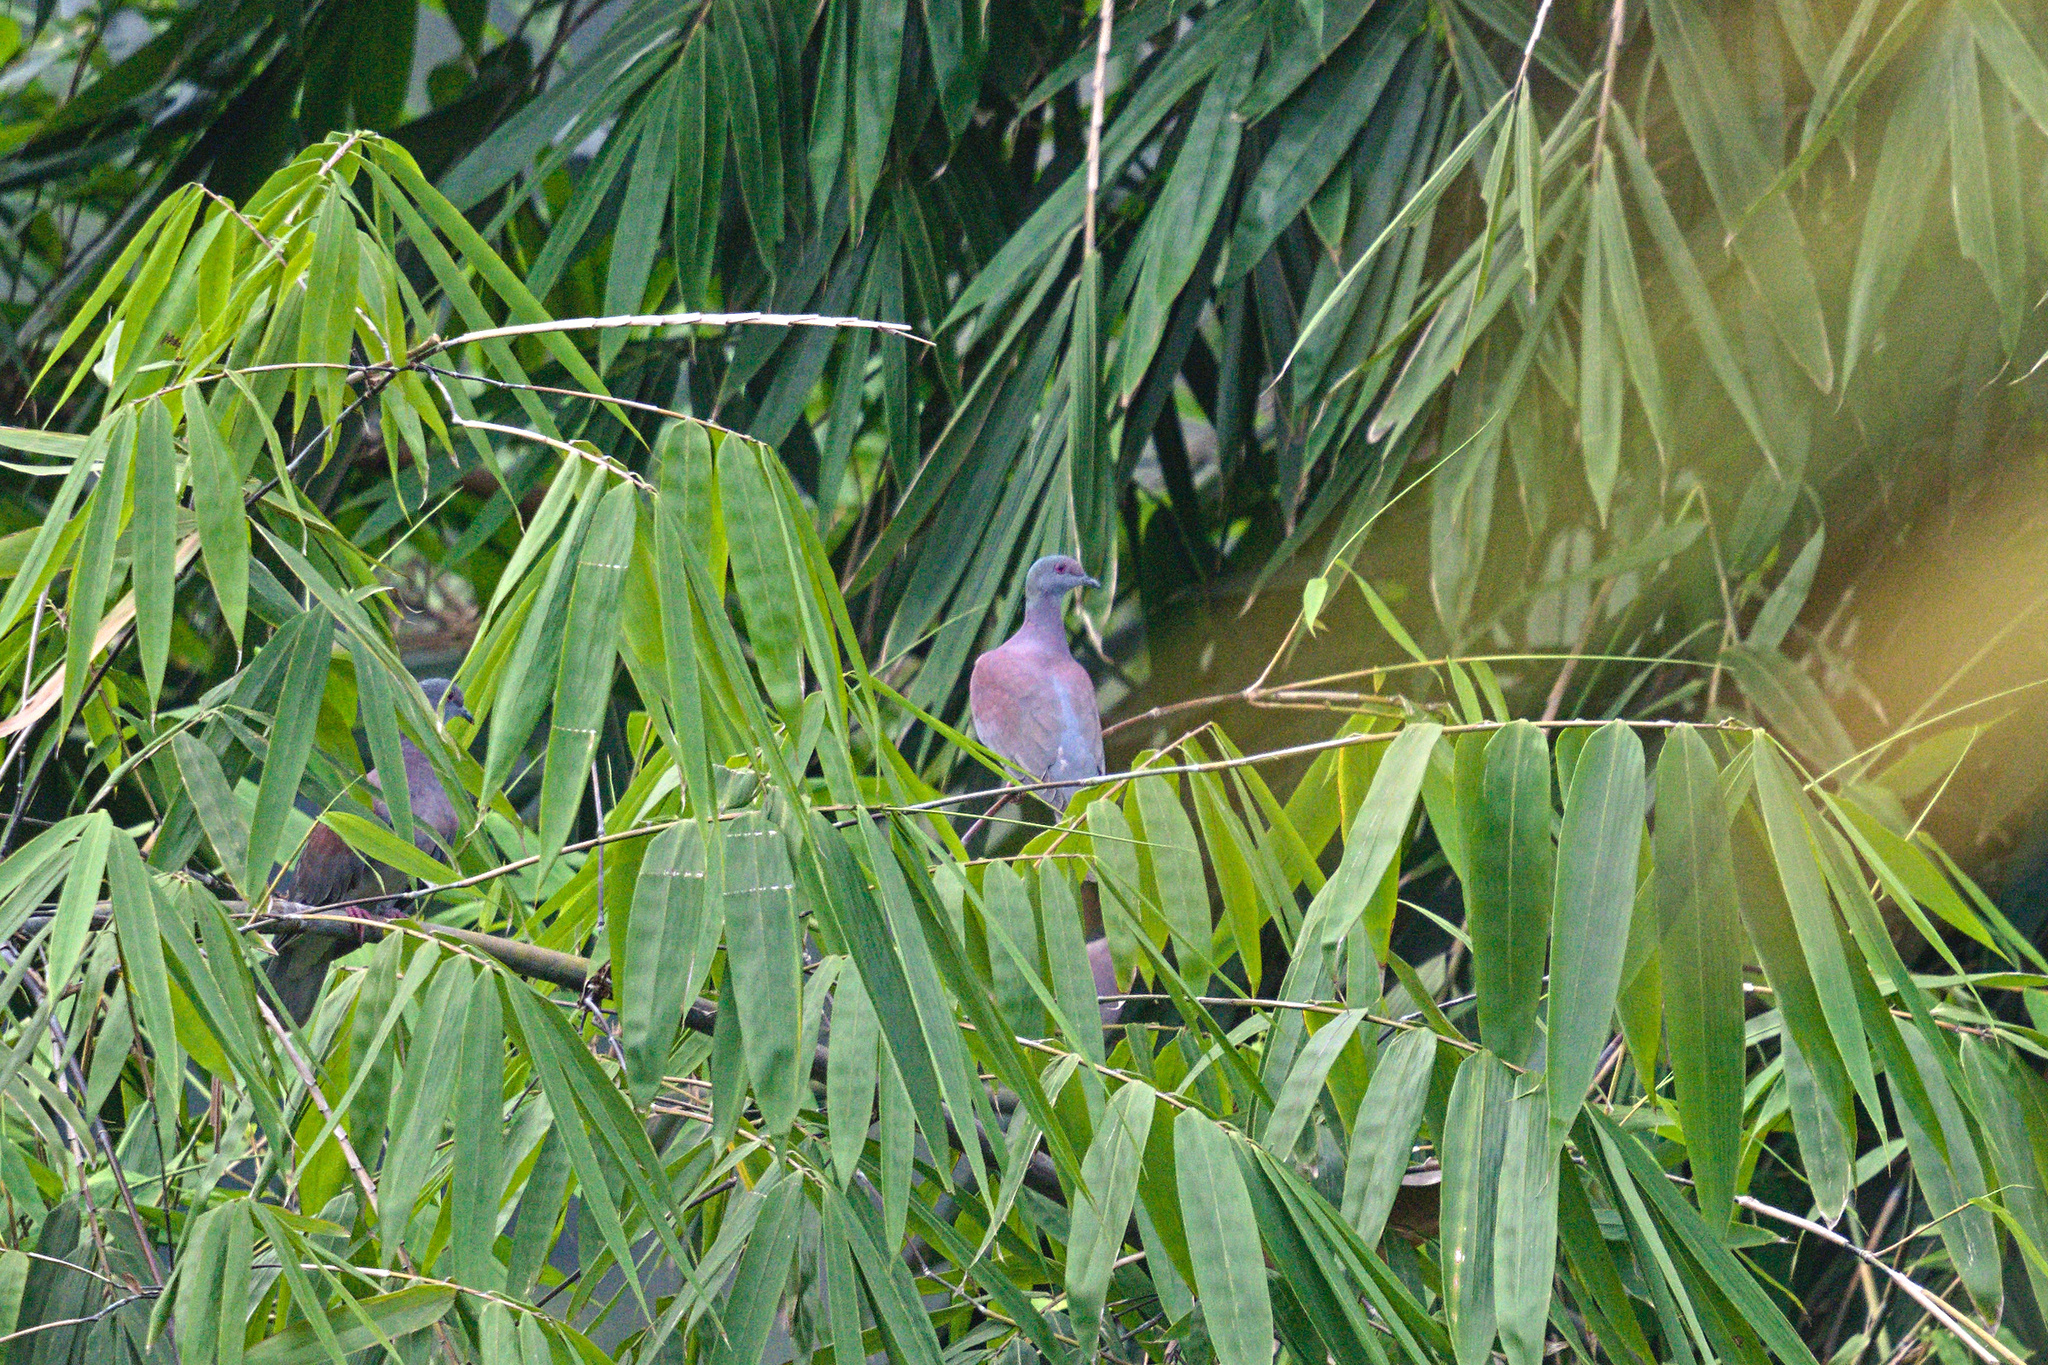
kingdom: Animalia
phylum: Chordata
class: Aves
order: Columbiformes
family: Columbidae
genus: Patagioenas
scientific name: Patagioenas cayennensis
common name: Pale-vented pigeon
